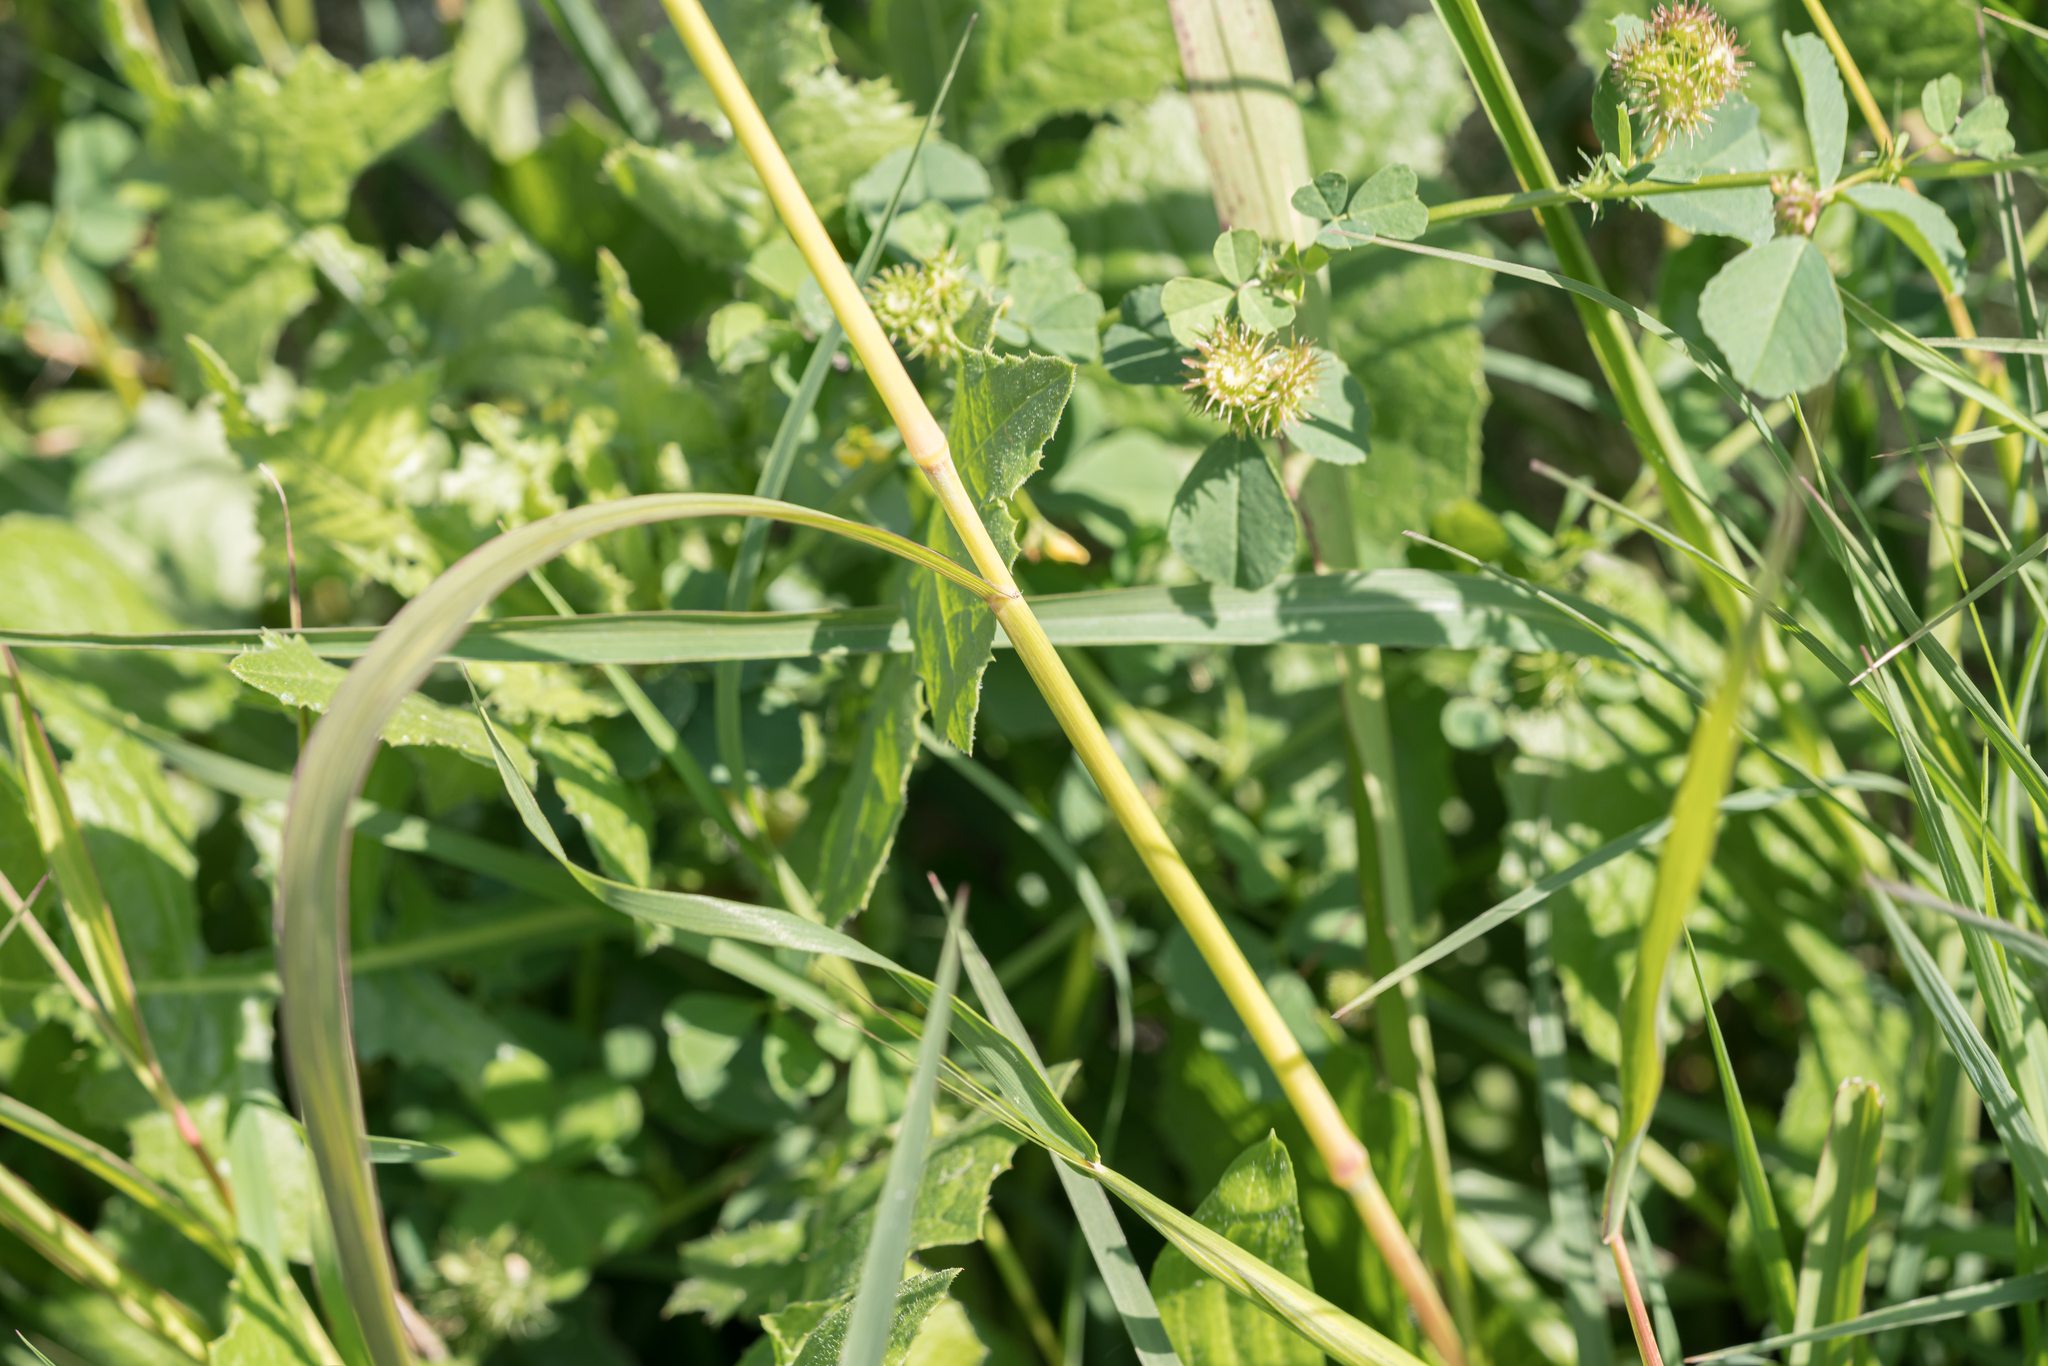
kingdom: Plantae
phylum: Tracheophyta
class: Liliopsida
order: Poales
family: Poaceae
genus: Sorghum
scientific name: Sorghum halepense
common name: Johnson-grass
